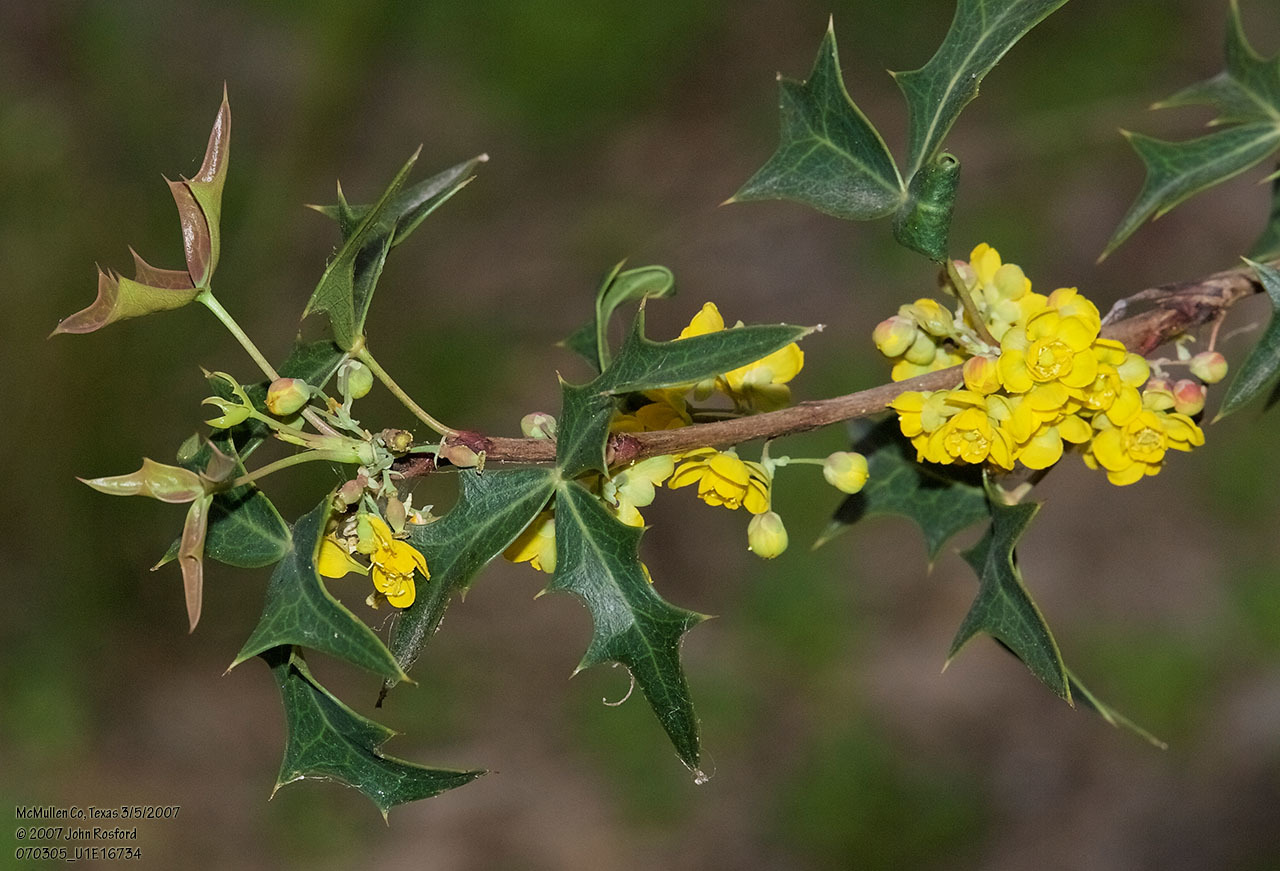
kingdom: Plantae
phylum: Tracheophyta
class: Magnoliopsida
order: Ranunculales
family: Berberidaceae
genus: Alloberberis
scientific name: Alloberberis trifoliolata
